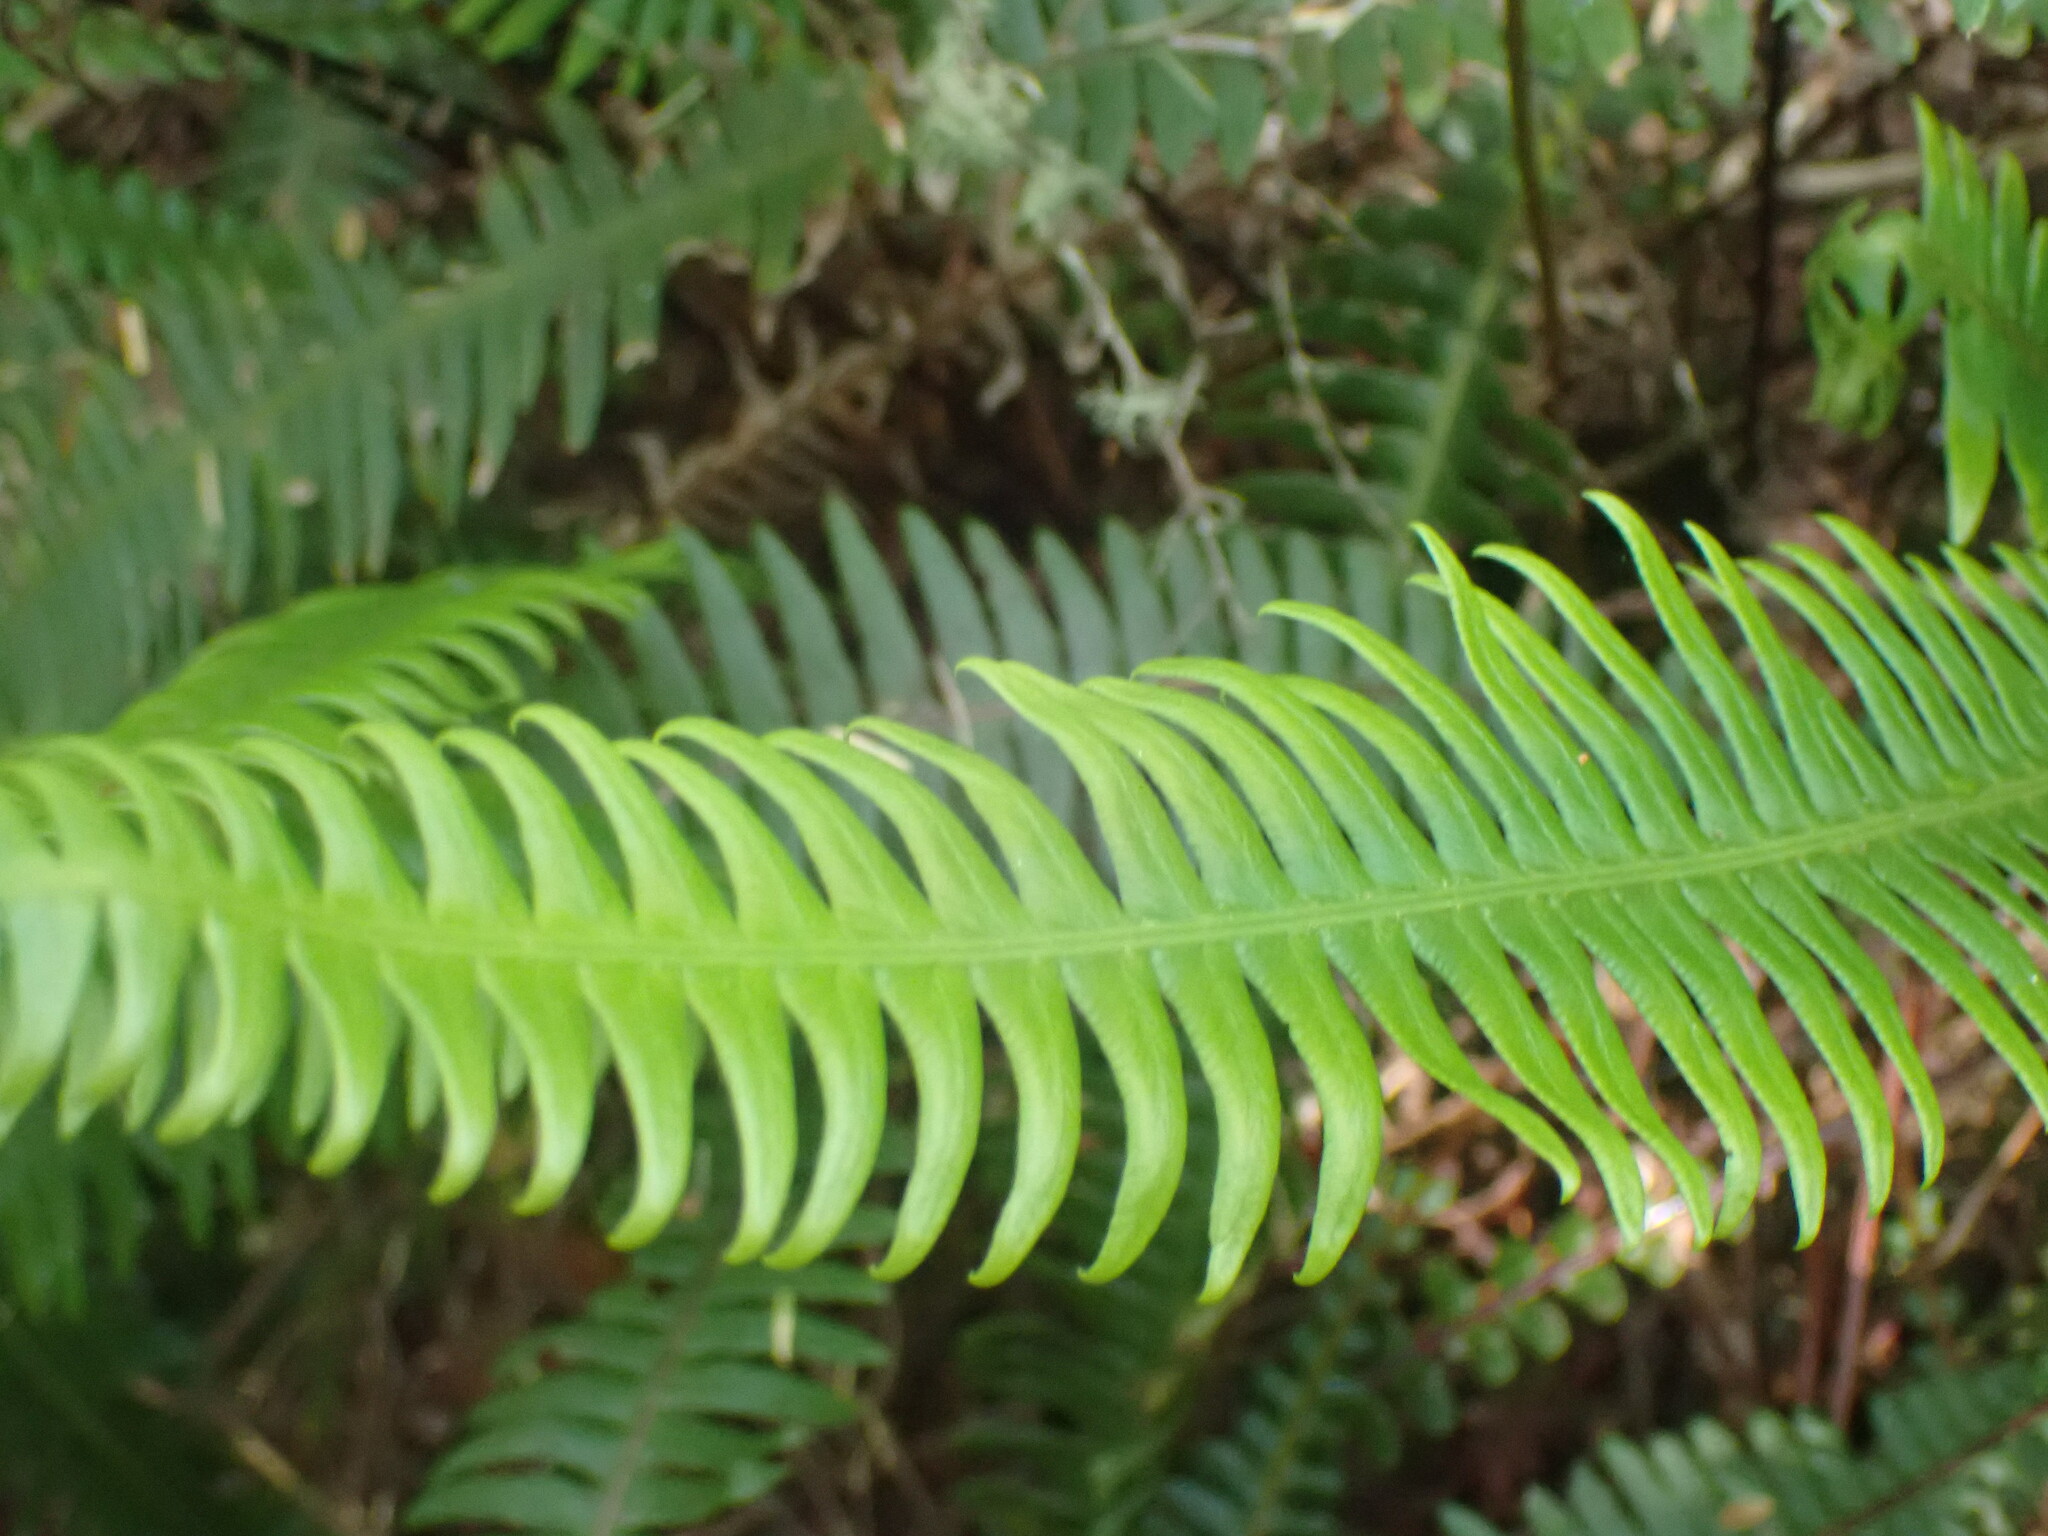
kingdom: Plantae
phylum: Tracheophyta
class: Polypodiopsida
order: Polypodiales
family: Blechnaceae
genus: Struthiopteris
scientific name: Struthiopteris spicant
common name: Deer fern
